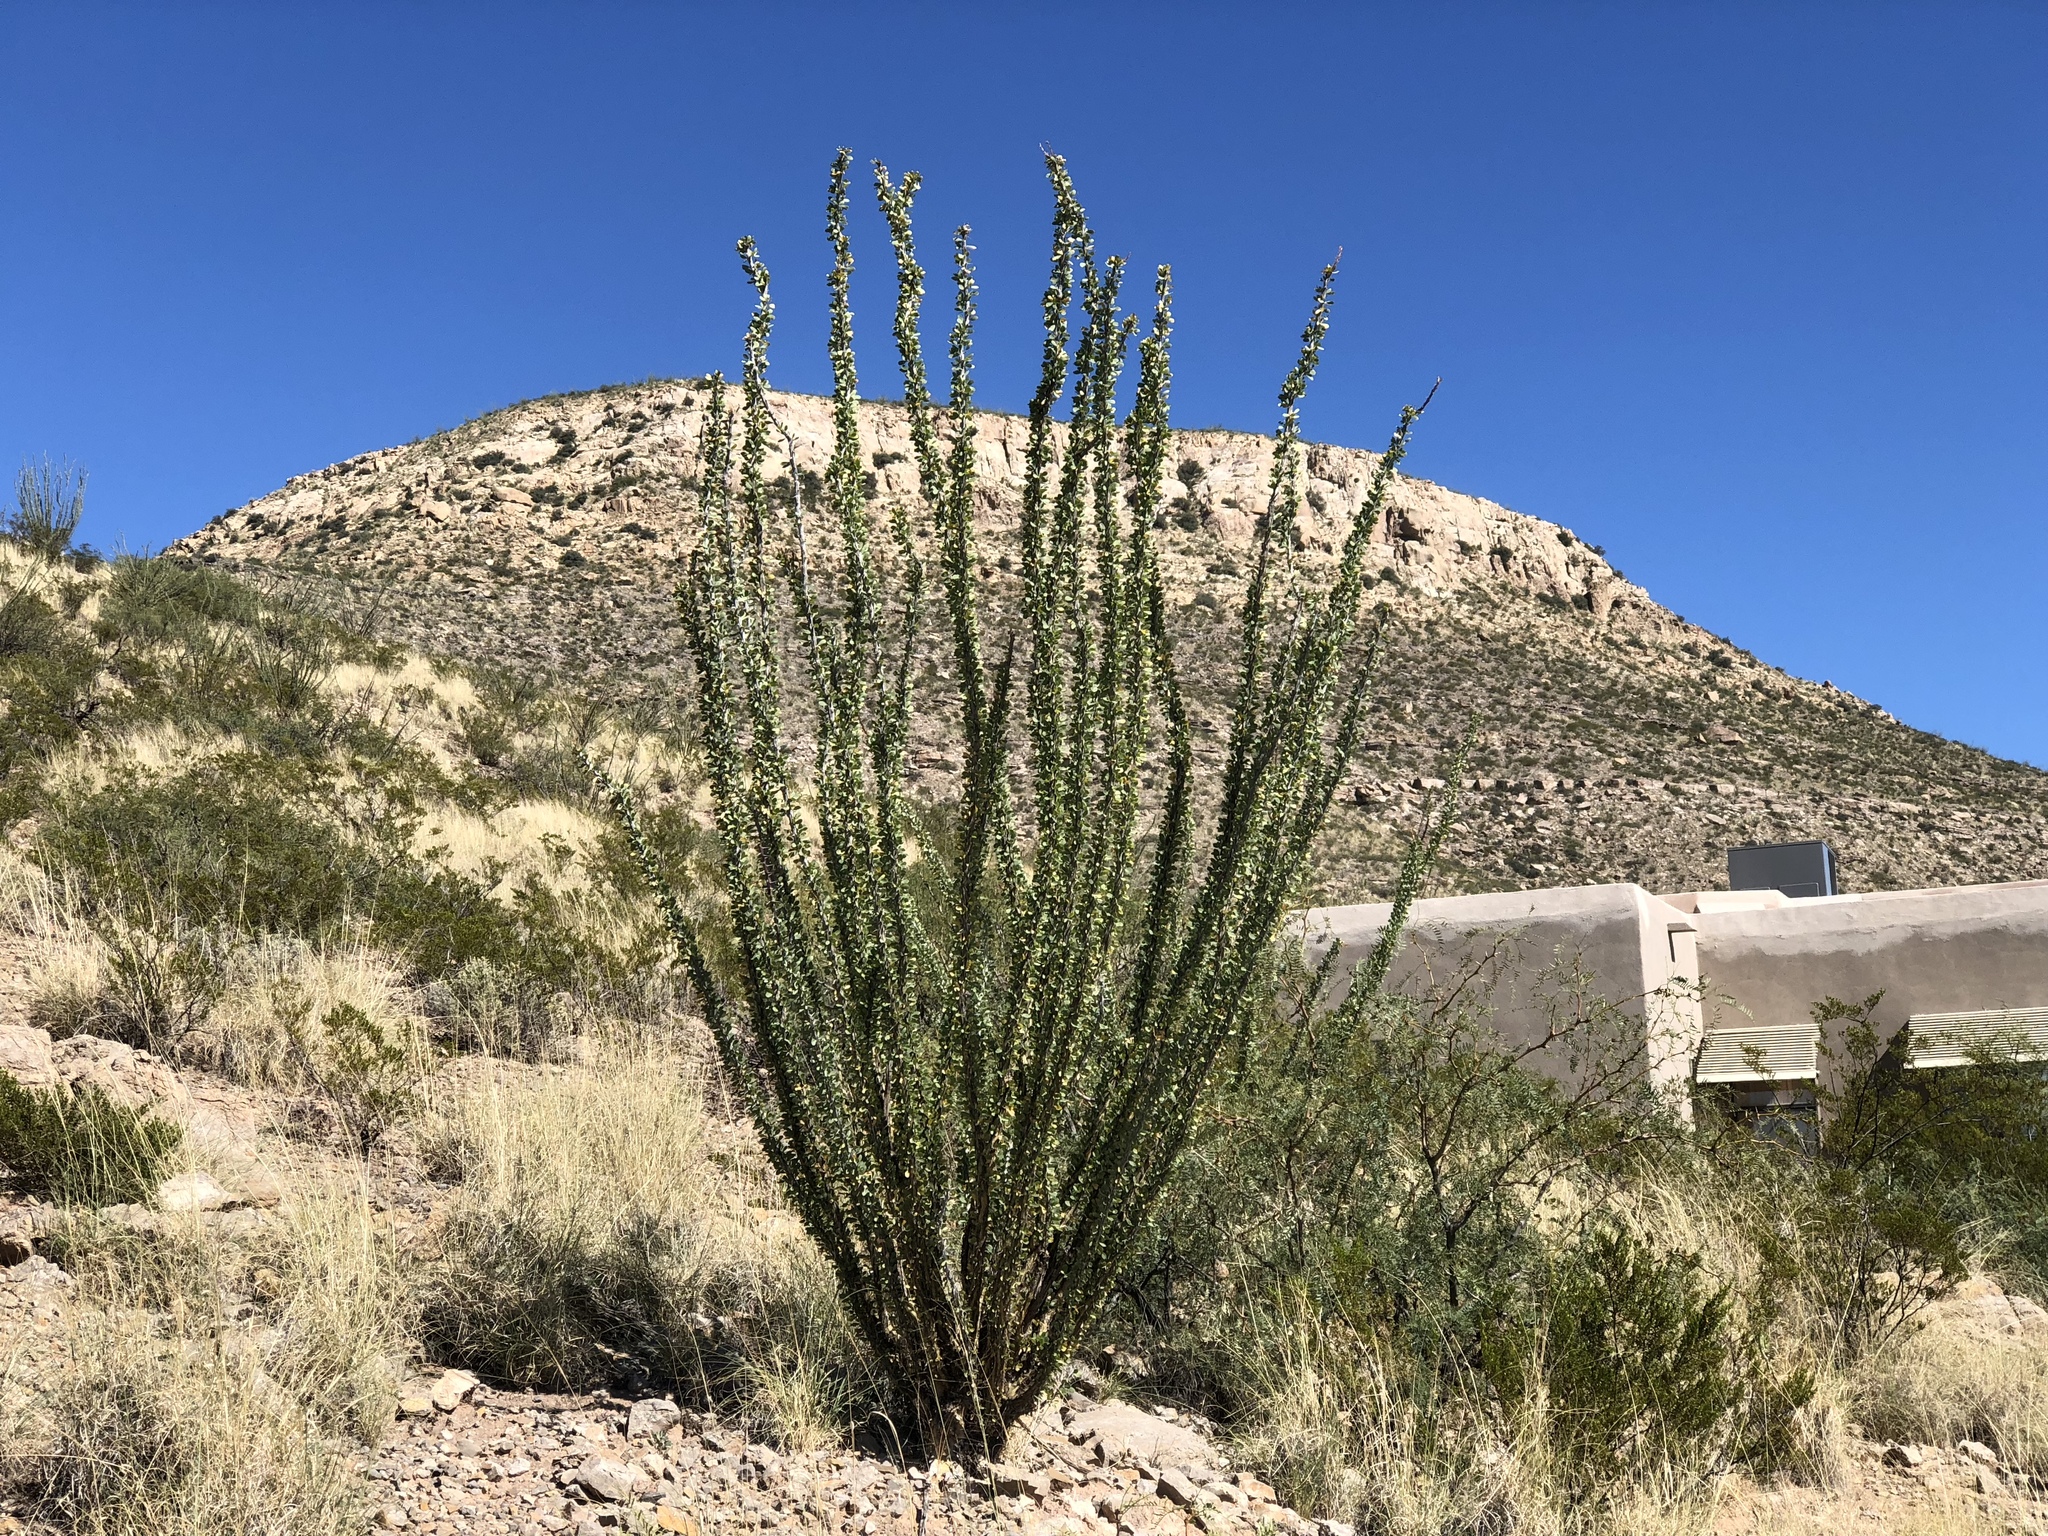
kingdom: Plantae
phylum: Tracheophyta
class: Magnoliopsida
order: Ericales
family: Fouquieriaceae
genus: Fouquieria
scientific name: Fouquieria splendens
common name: Vine-cactus
